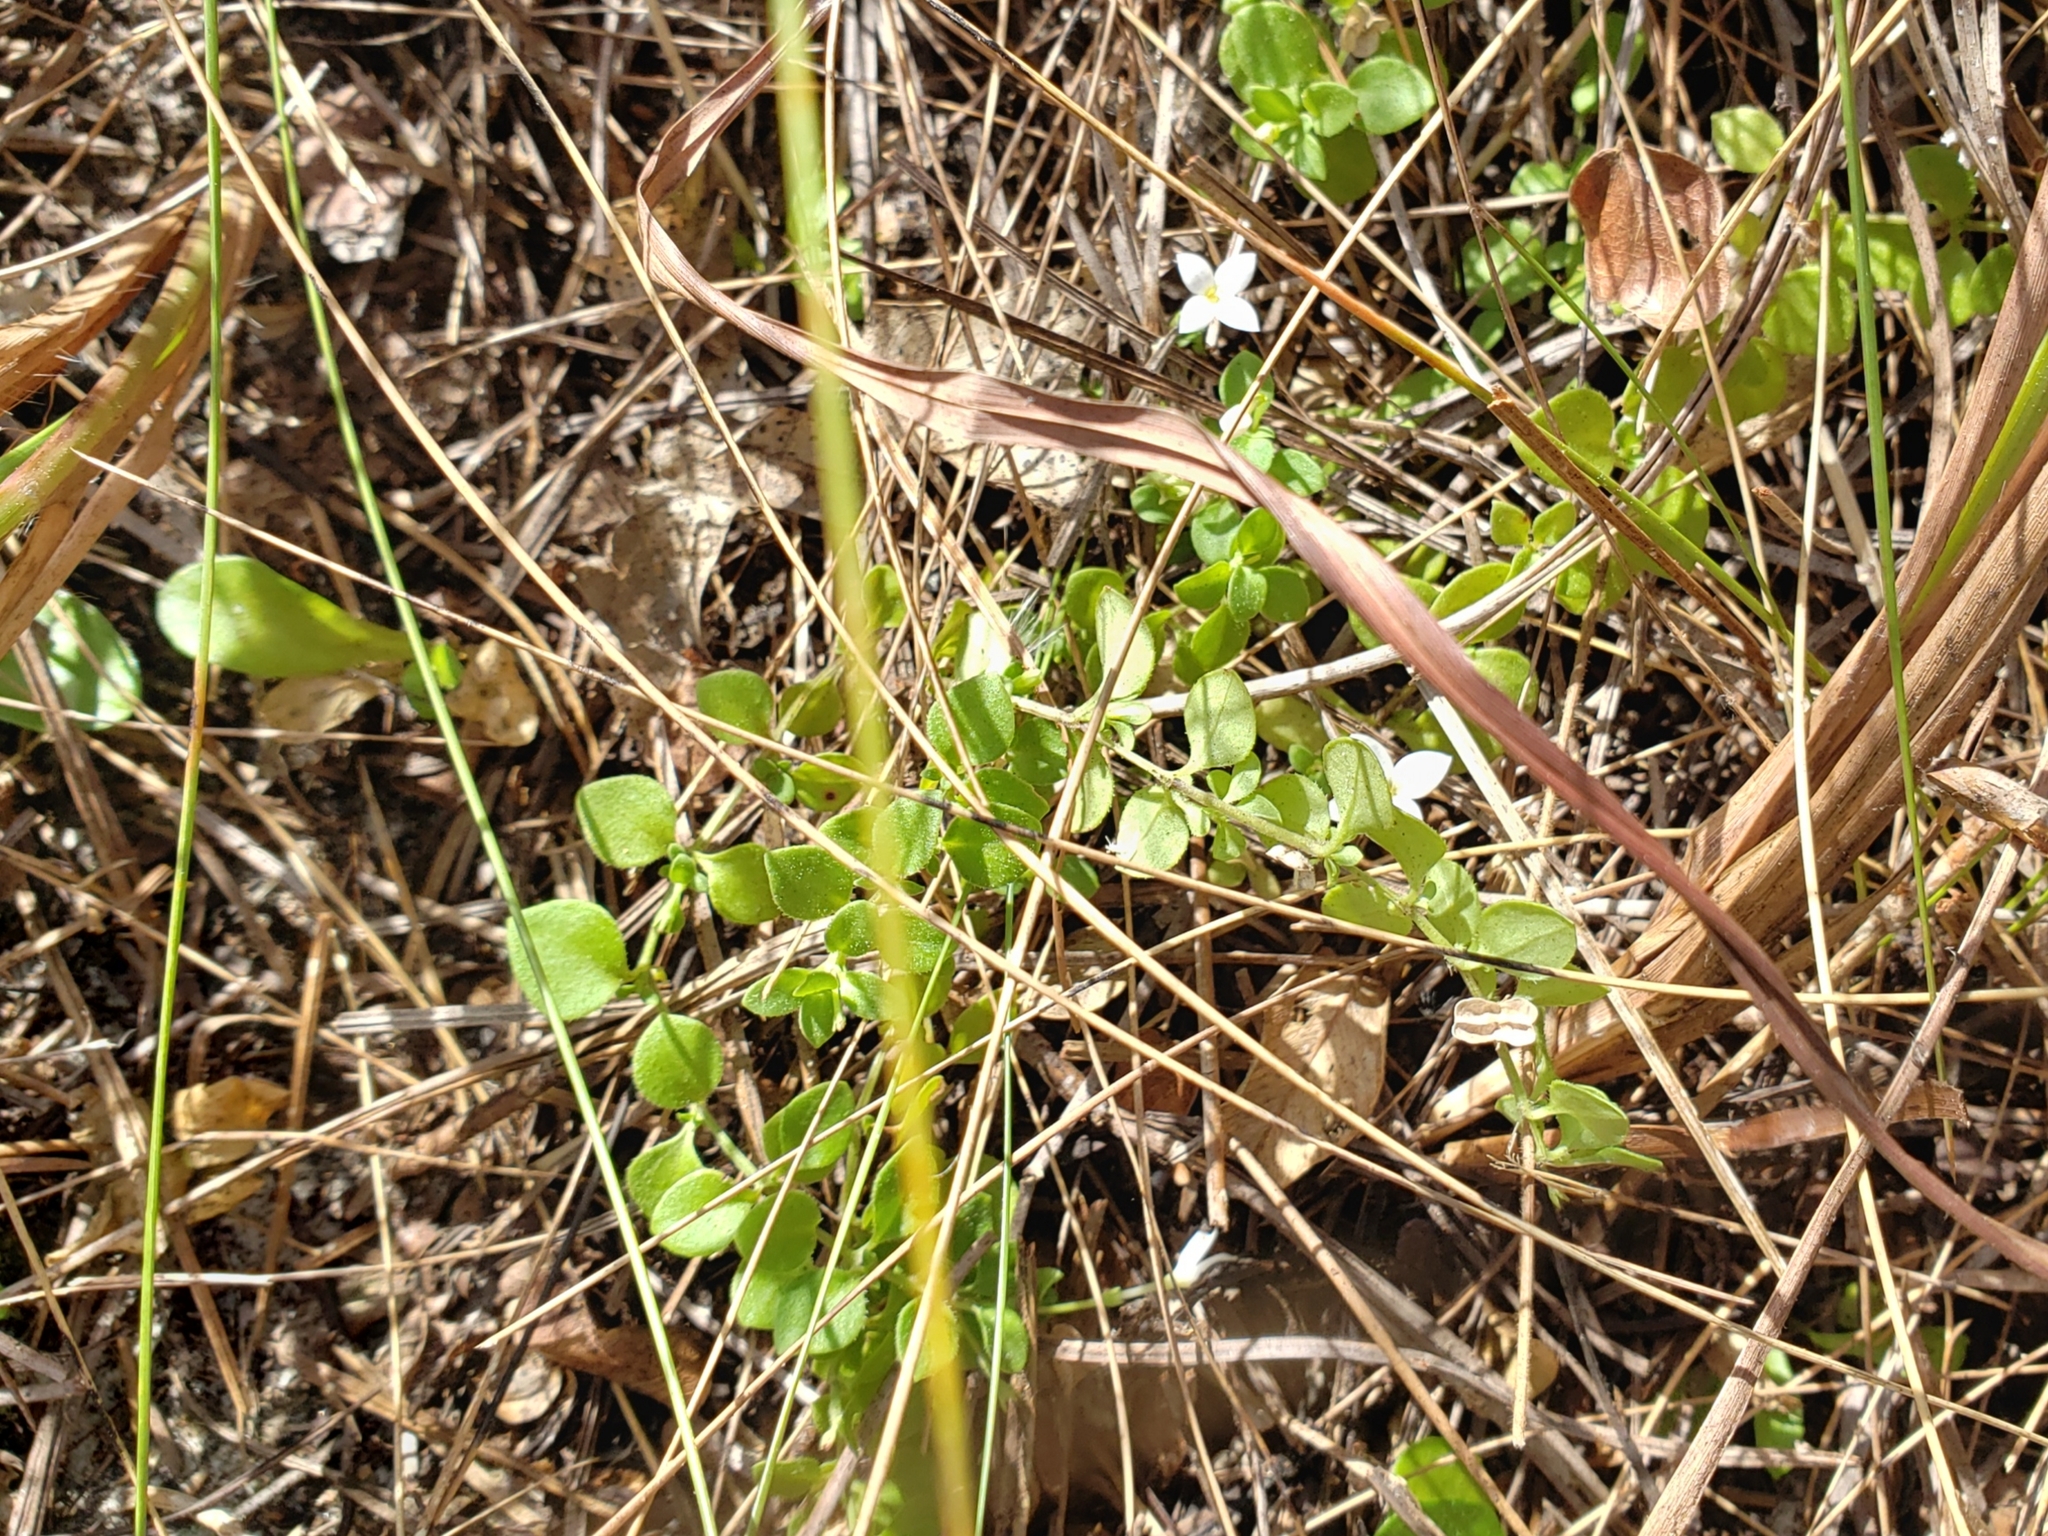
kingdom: Plantae
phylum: Tracheophyta
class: Magnoliopsida
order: Gentianales
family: Rubiaceae
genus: Houstonia
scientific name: Houstonia procumbens
